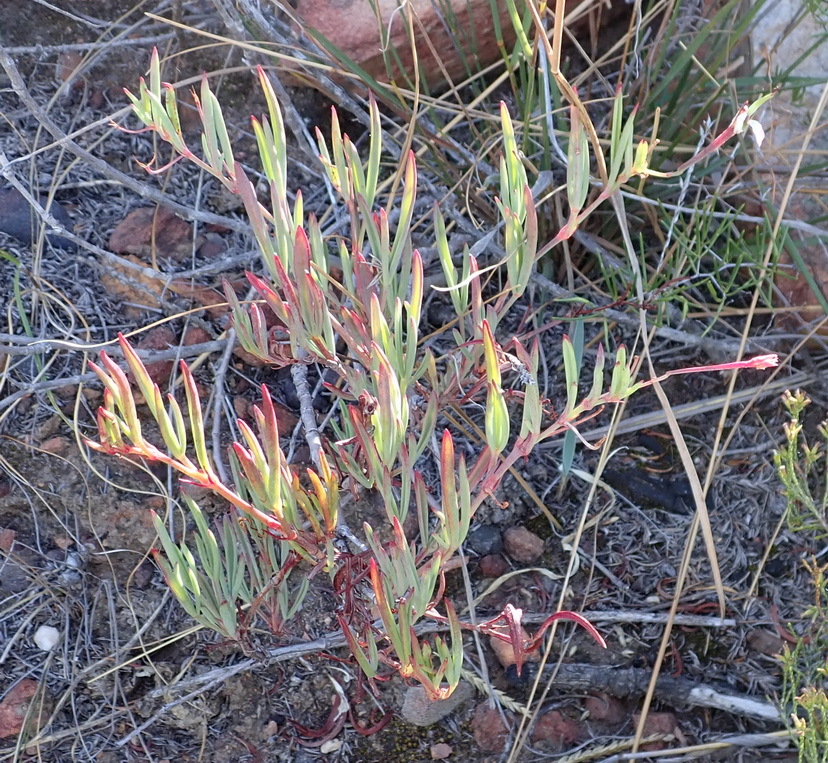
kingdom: Plantae
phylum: Tracheophyta
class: Magnoliopsida
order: Geraniales
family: Geraniaceae
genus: Pelargonium
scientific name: Pelargonium laevigatum
